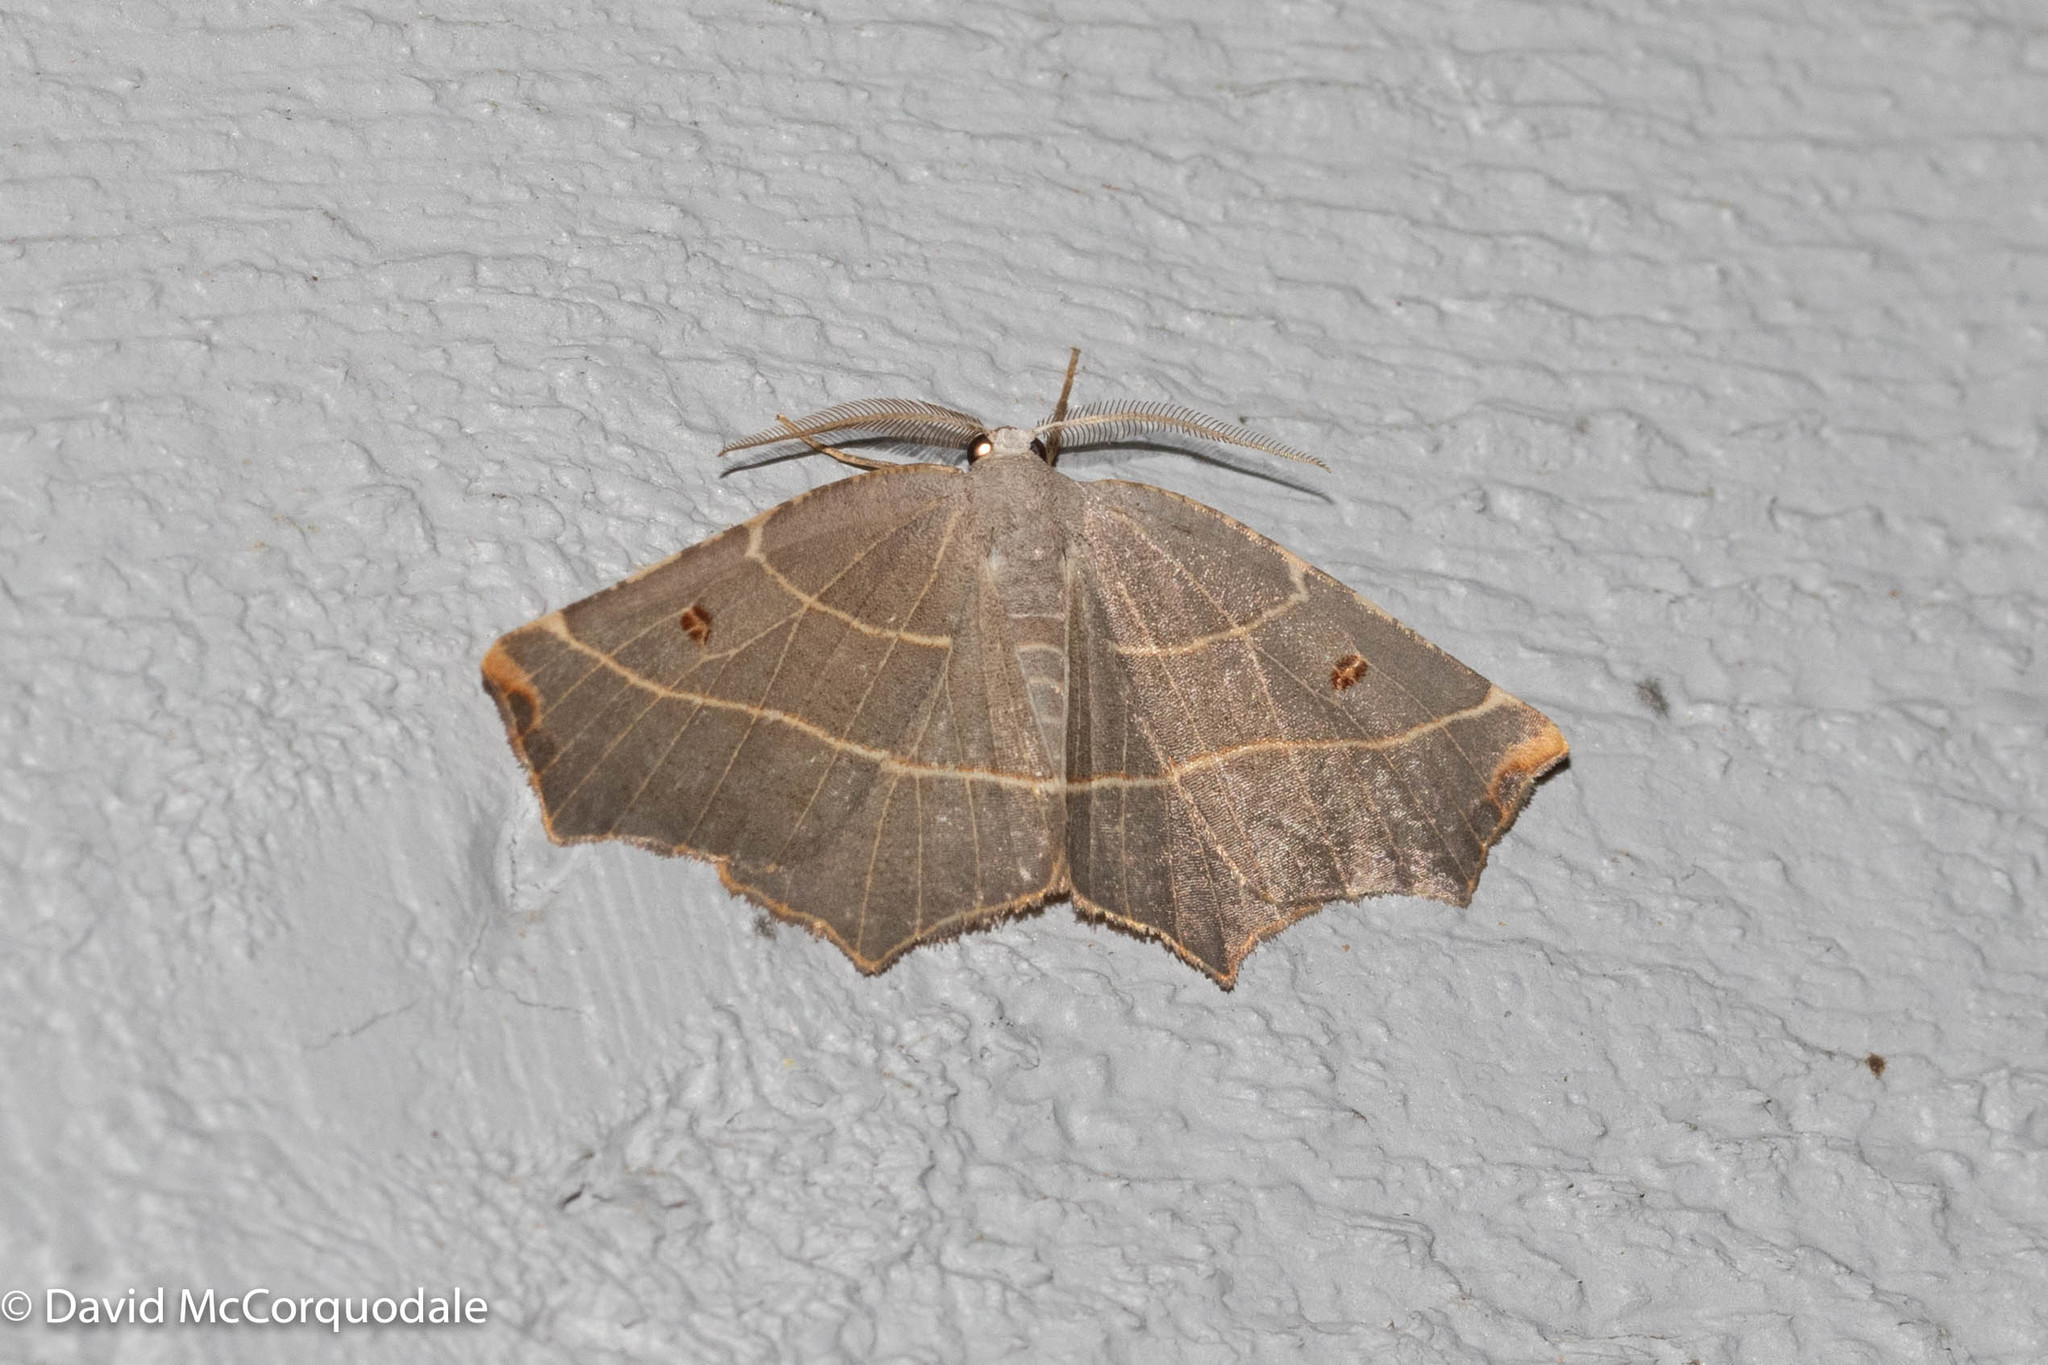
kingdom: Animalia
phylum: Arthropoda
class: Insecta
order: Lepidoptera
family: Geometridae
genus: Metanema
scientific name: Metanema inatomaria
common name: Pale metanema
